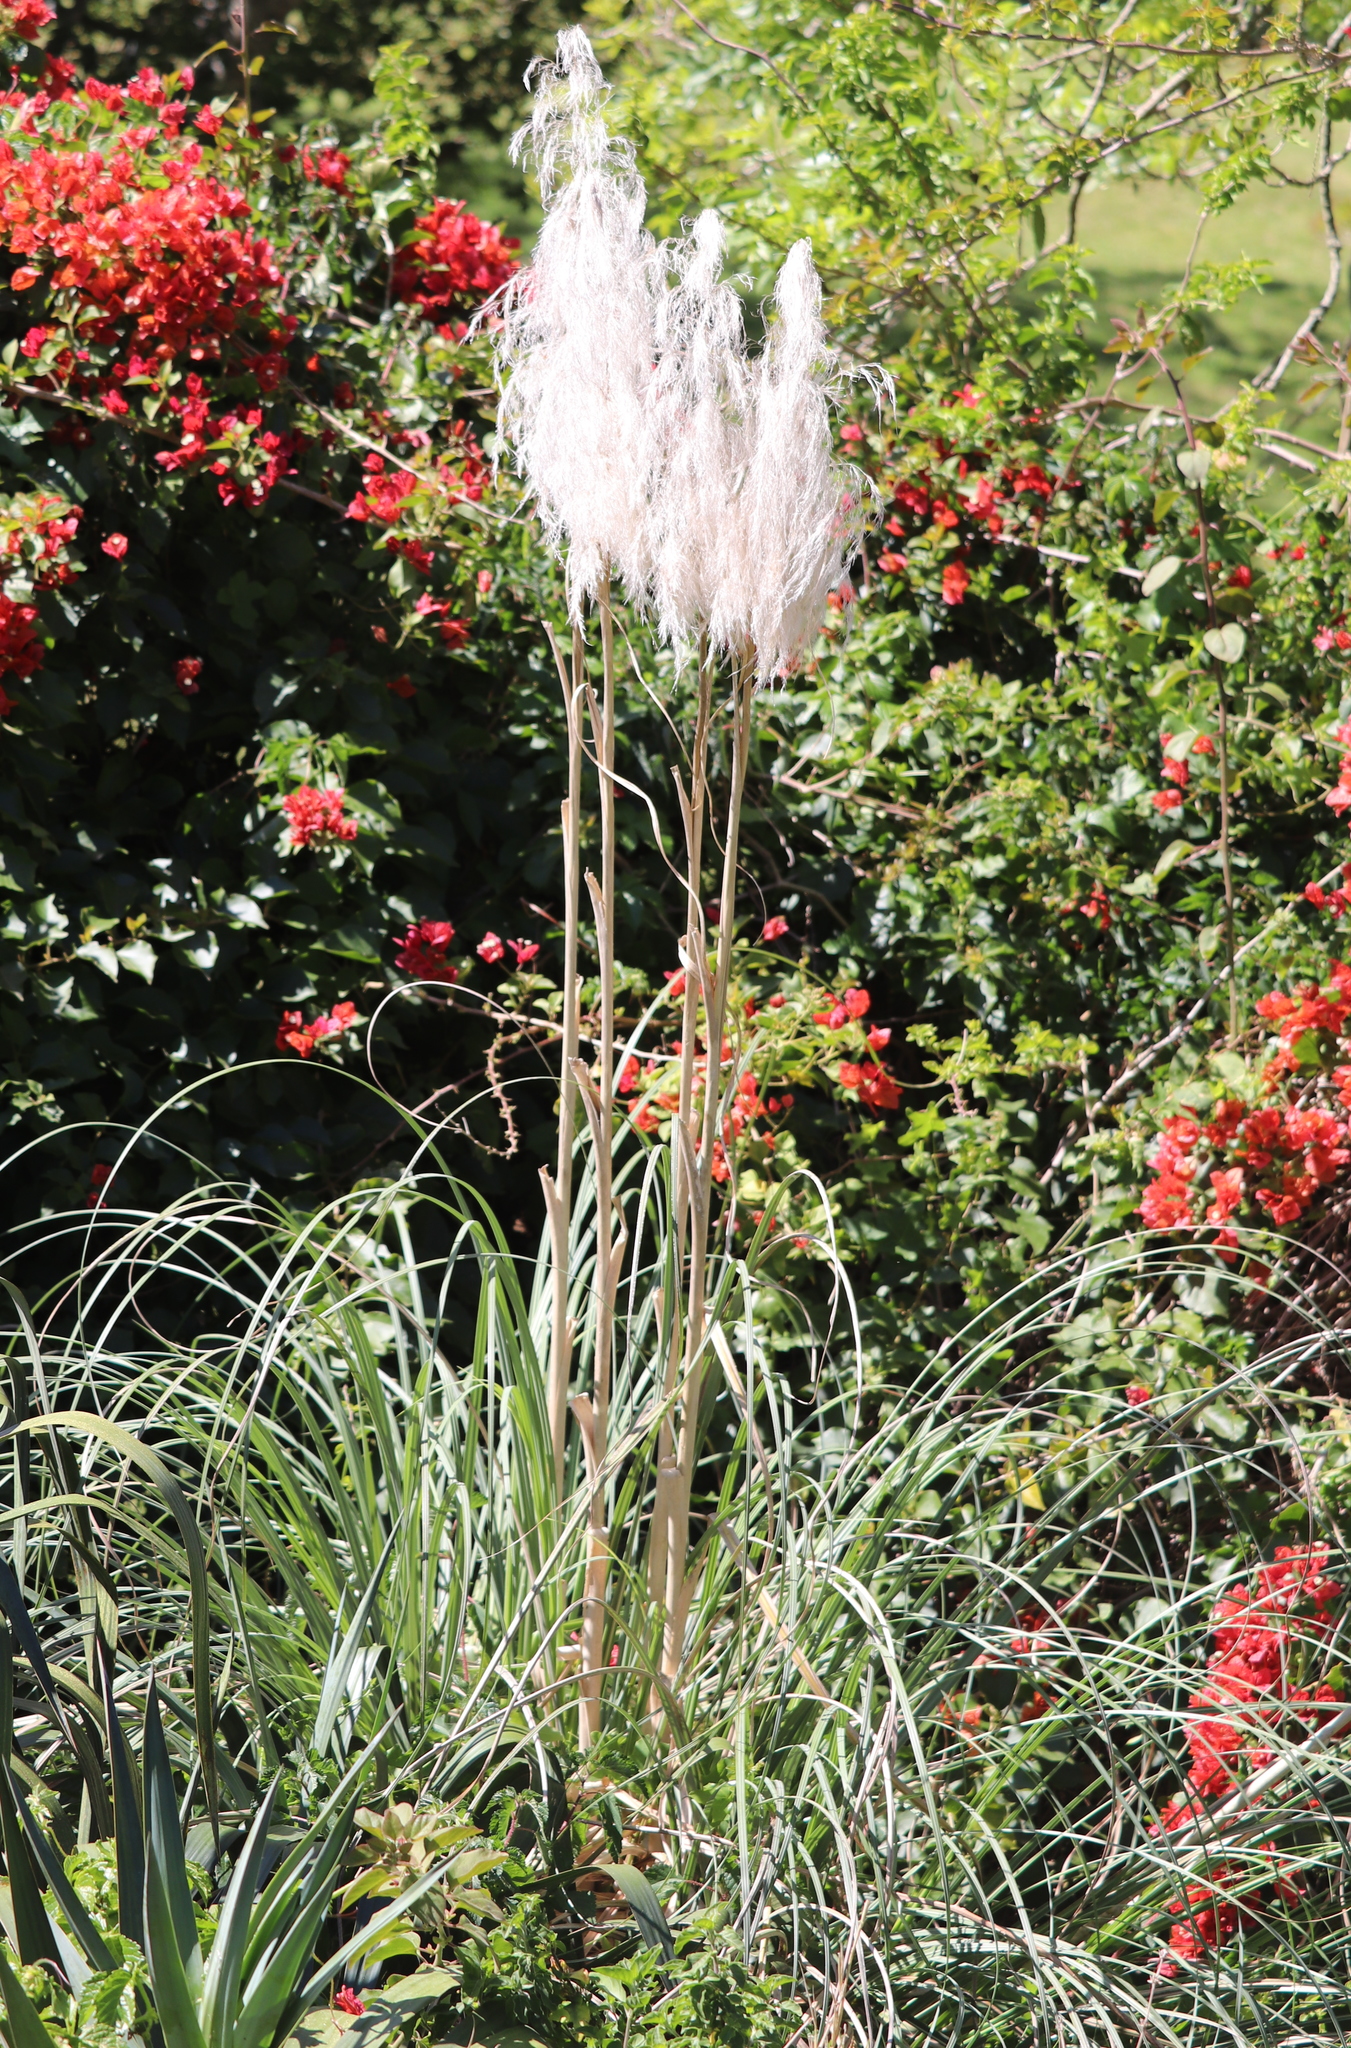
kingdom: Plantae
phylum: Tracheophyta
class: Liliopsida
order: Poales
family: Poaceae
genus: Cortaderia
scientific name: Cortaderia selloana
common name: Uruguayan pampas grass
